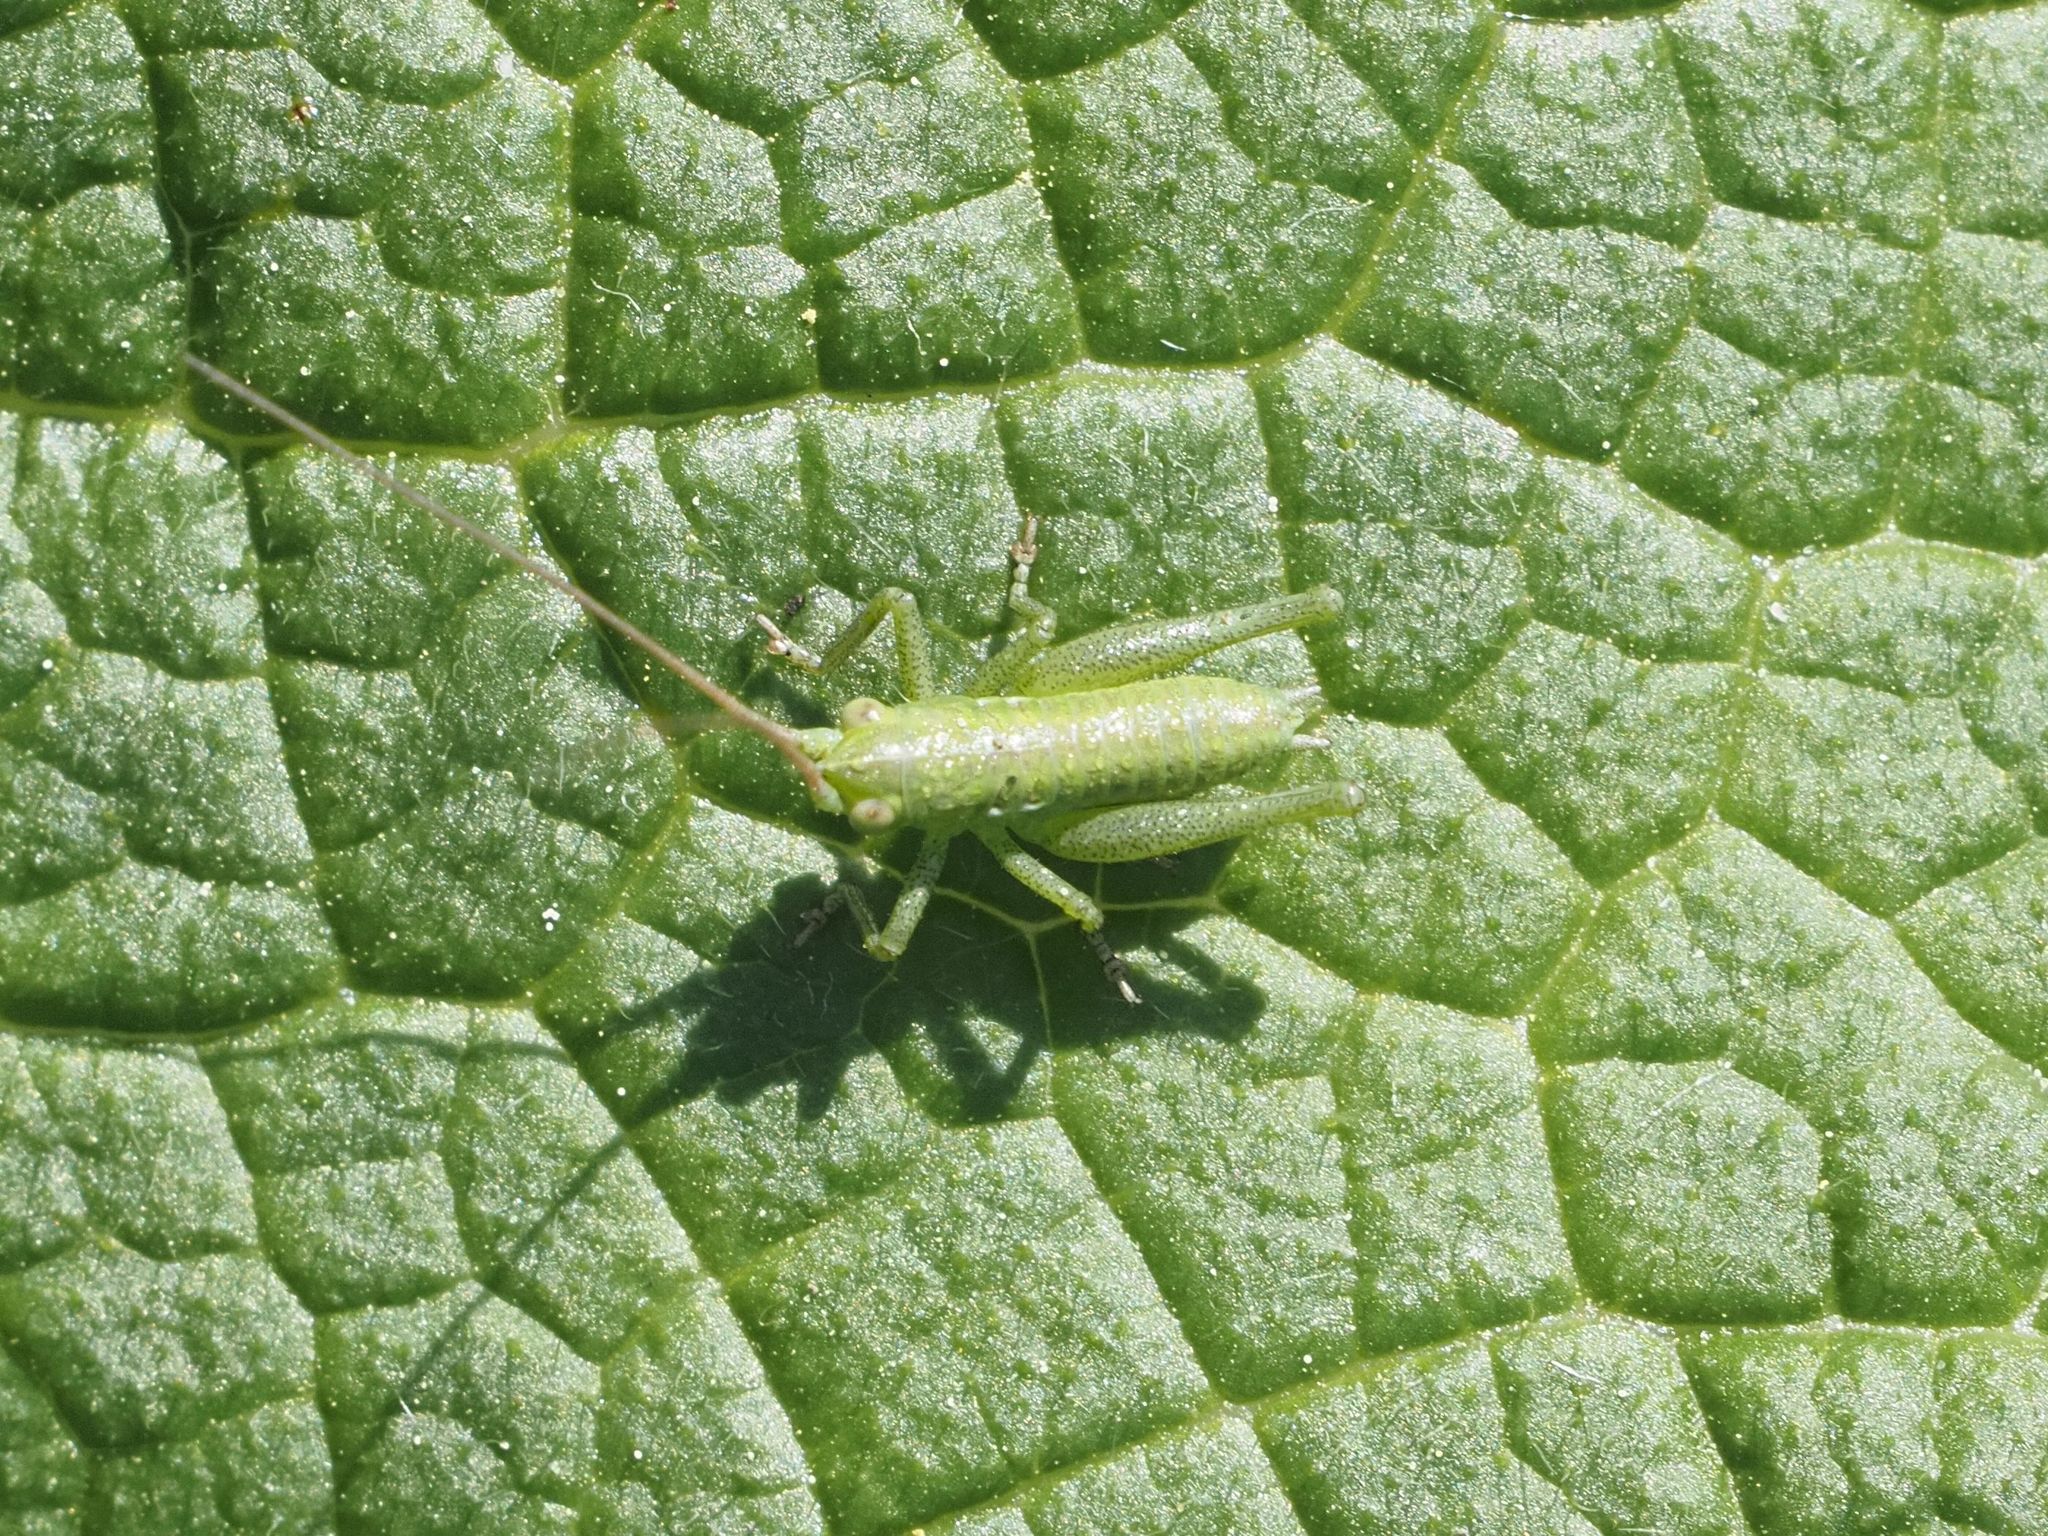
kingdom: Animalia
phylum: Arthropoda
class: Insecta
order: Orthoptera
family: Tettigoniidae
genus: Tettigonia
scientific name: Tettigonia viridissima
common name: Great green bush-cricket
